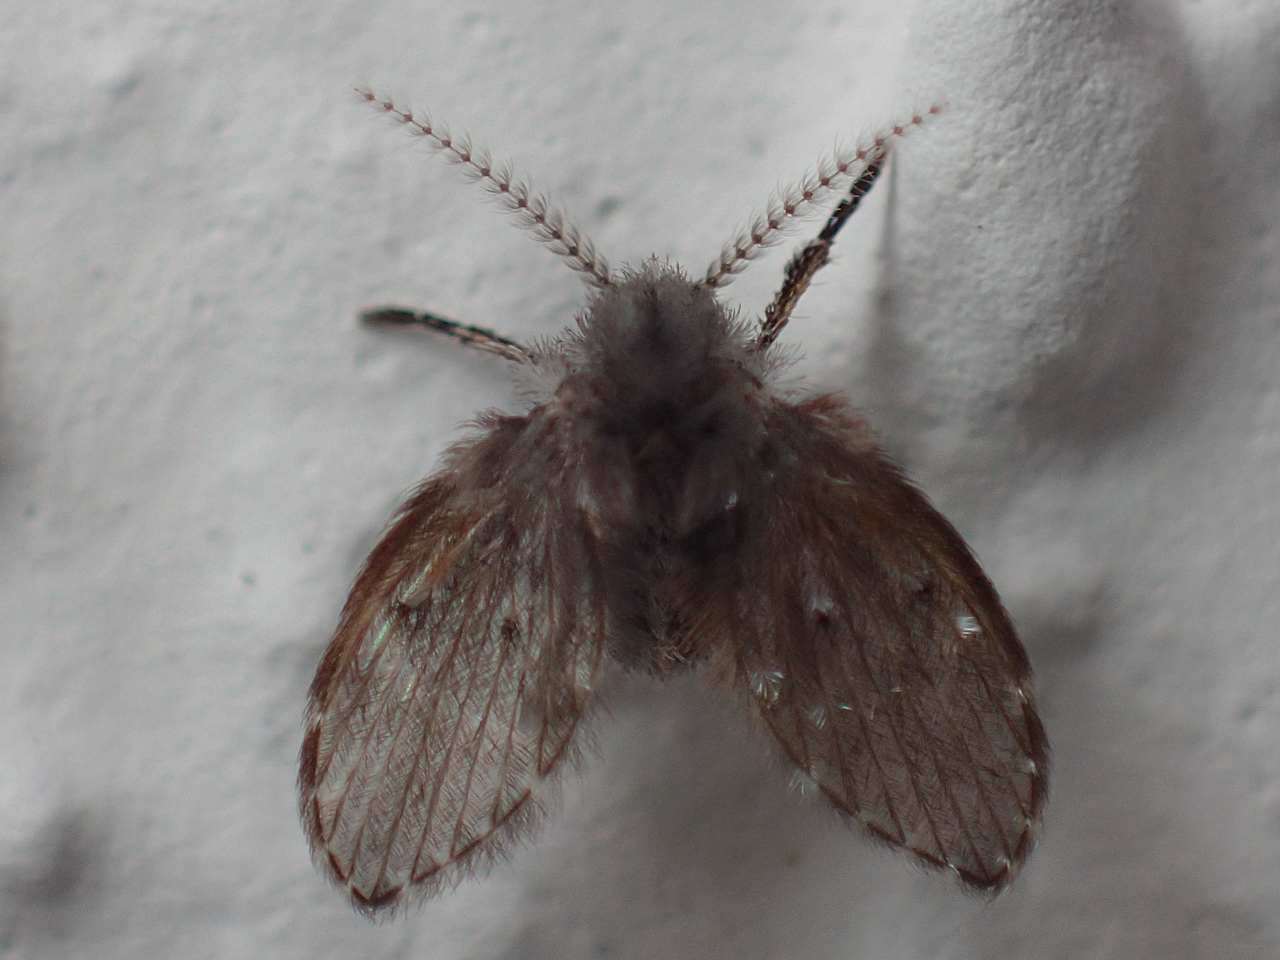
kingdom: Animalia
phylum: Arthropoda
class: Insecta
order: Diptera
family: Psychodidae
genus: Clogmia
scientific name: Clogmia albipunctatus
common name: White-spotted moth fly
